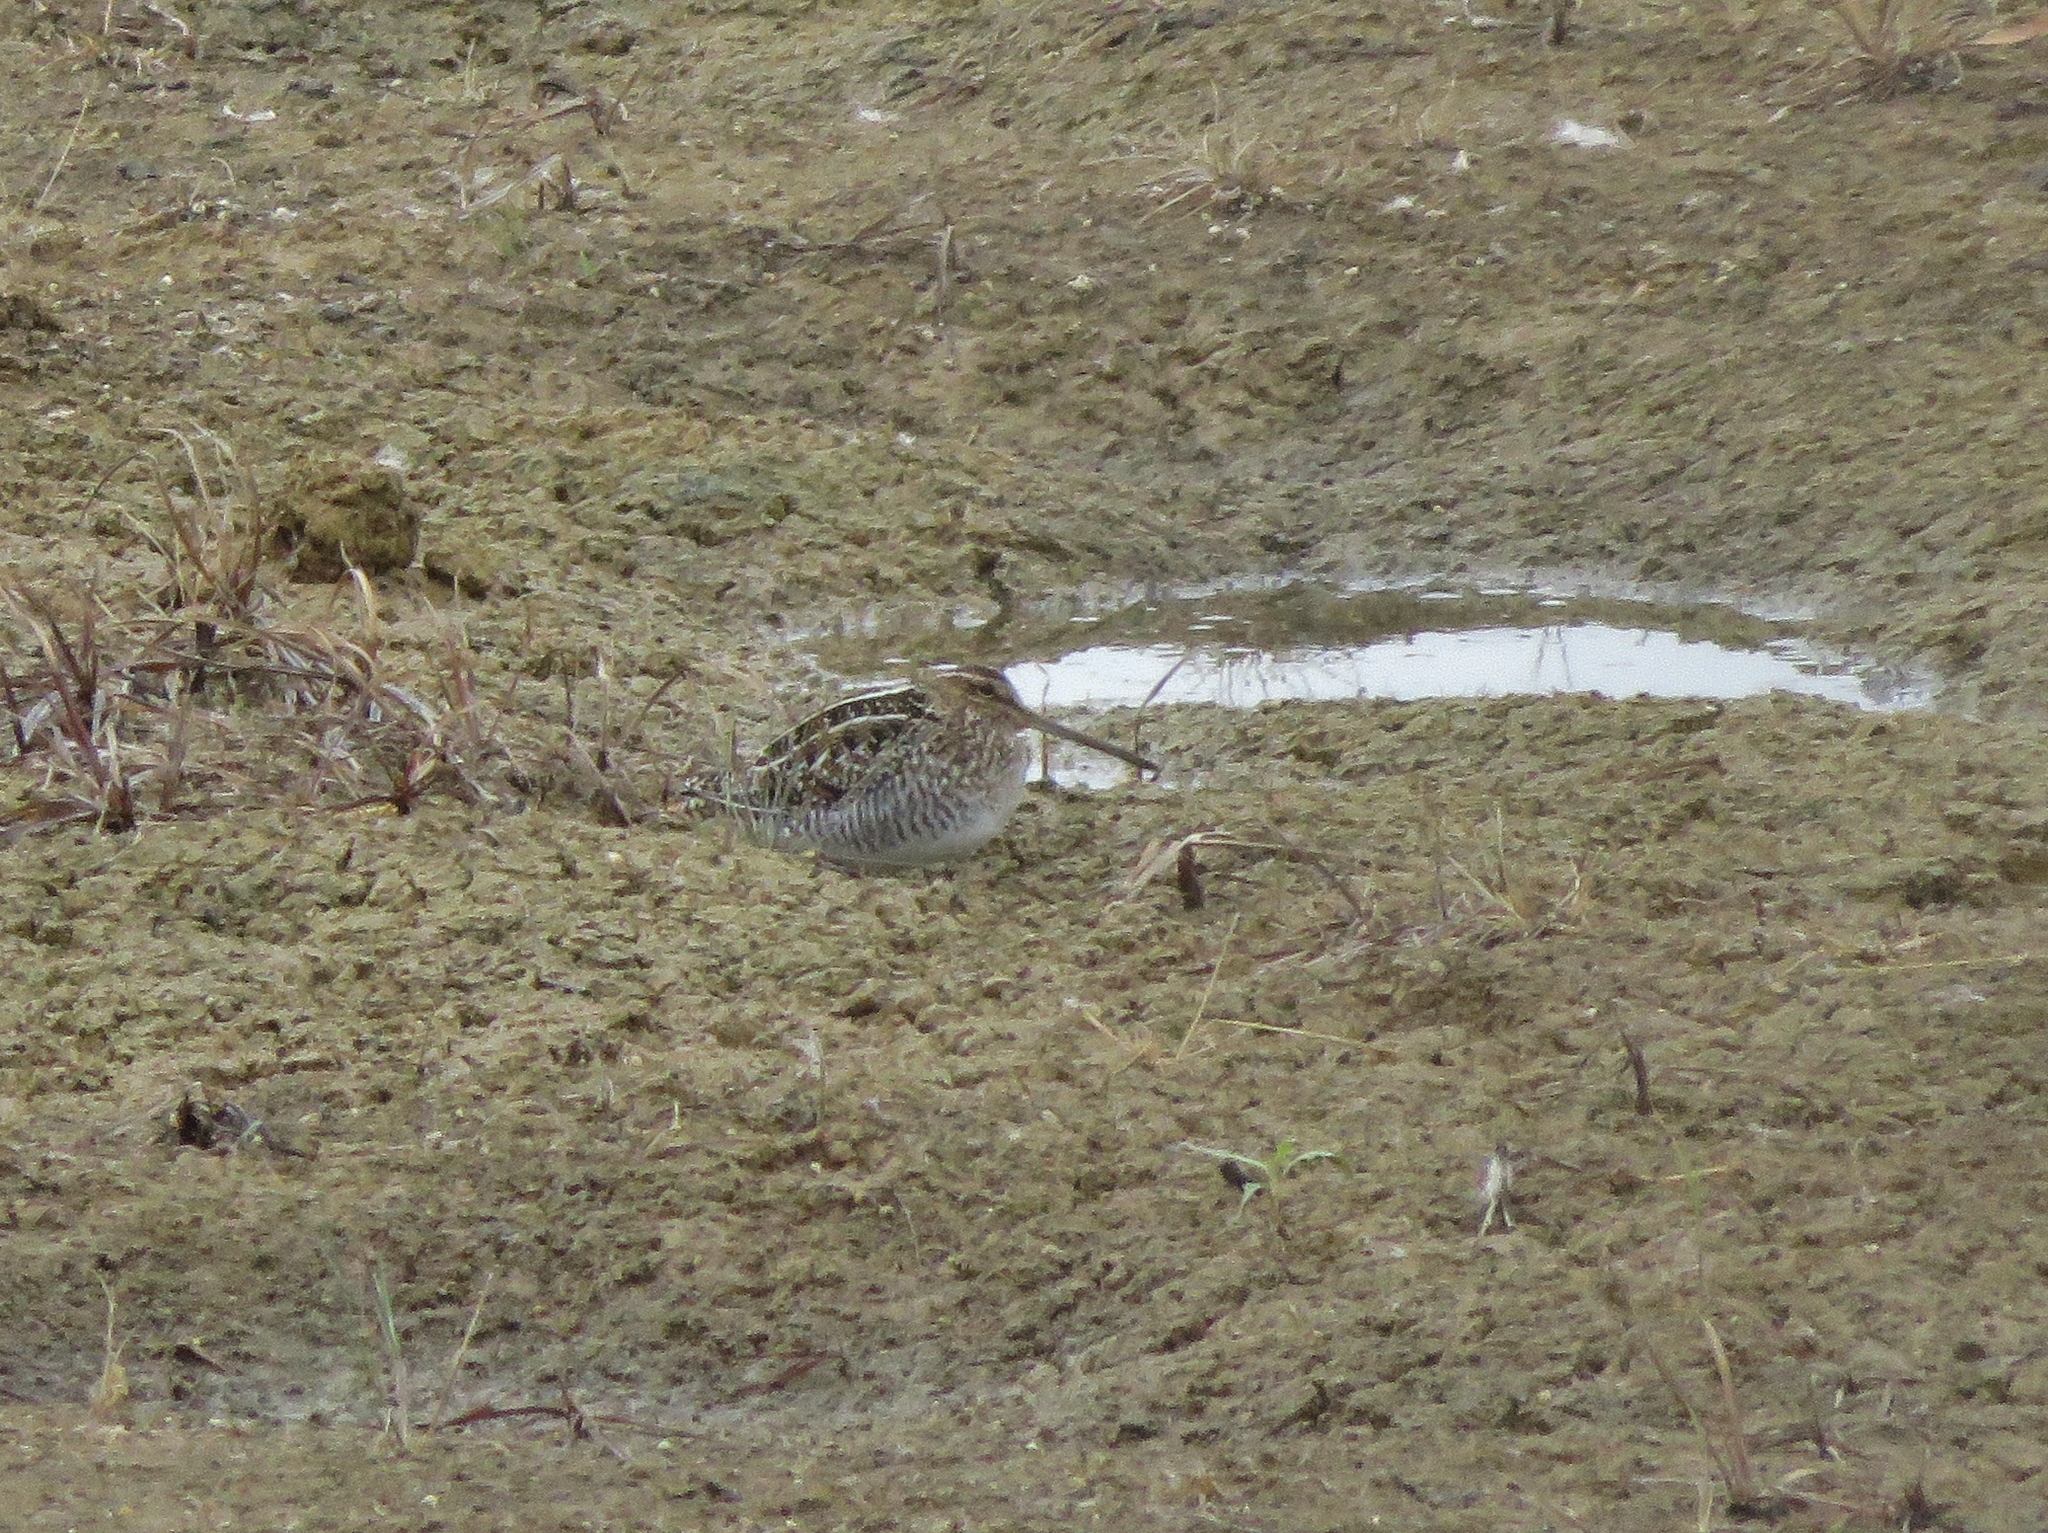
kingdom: Animalia
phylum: Chordata
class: Aves
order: Charadriiformes
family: Scolopacidae
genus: Gallinago
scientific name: Gallinago delicata
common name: Wilson's snipe
